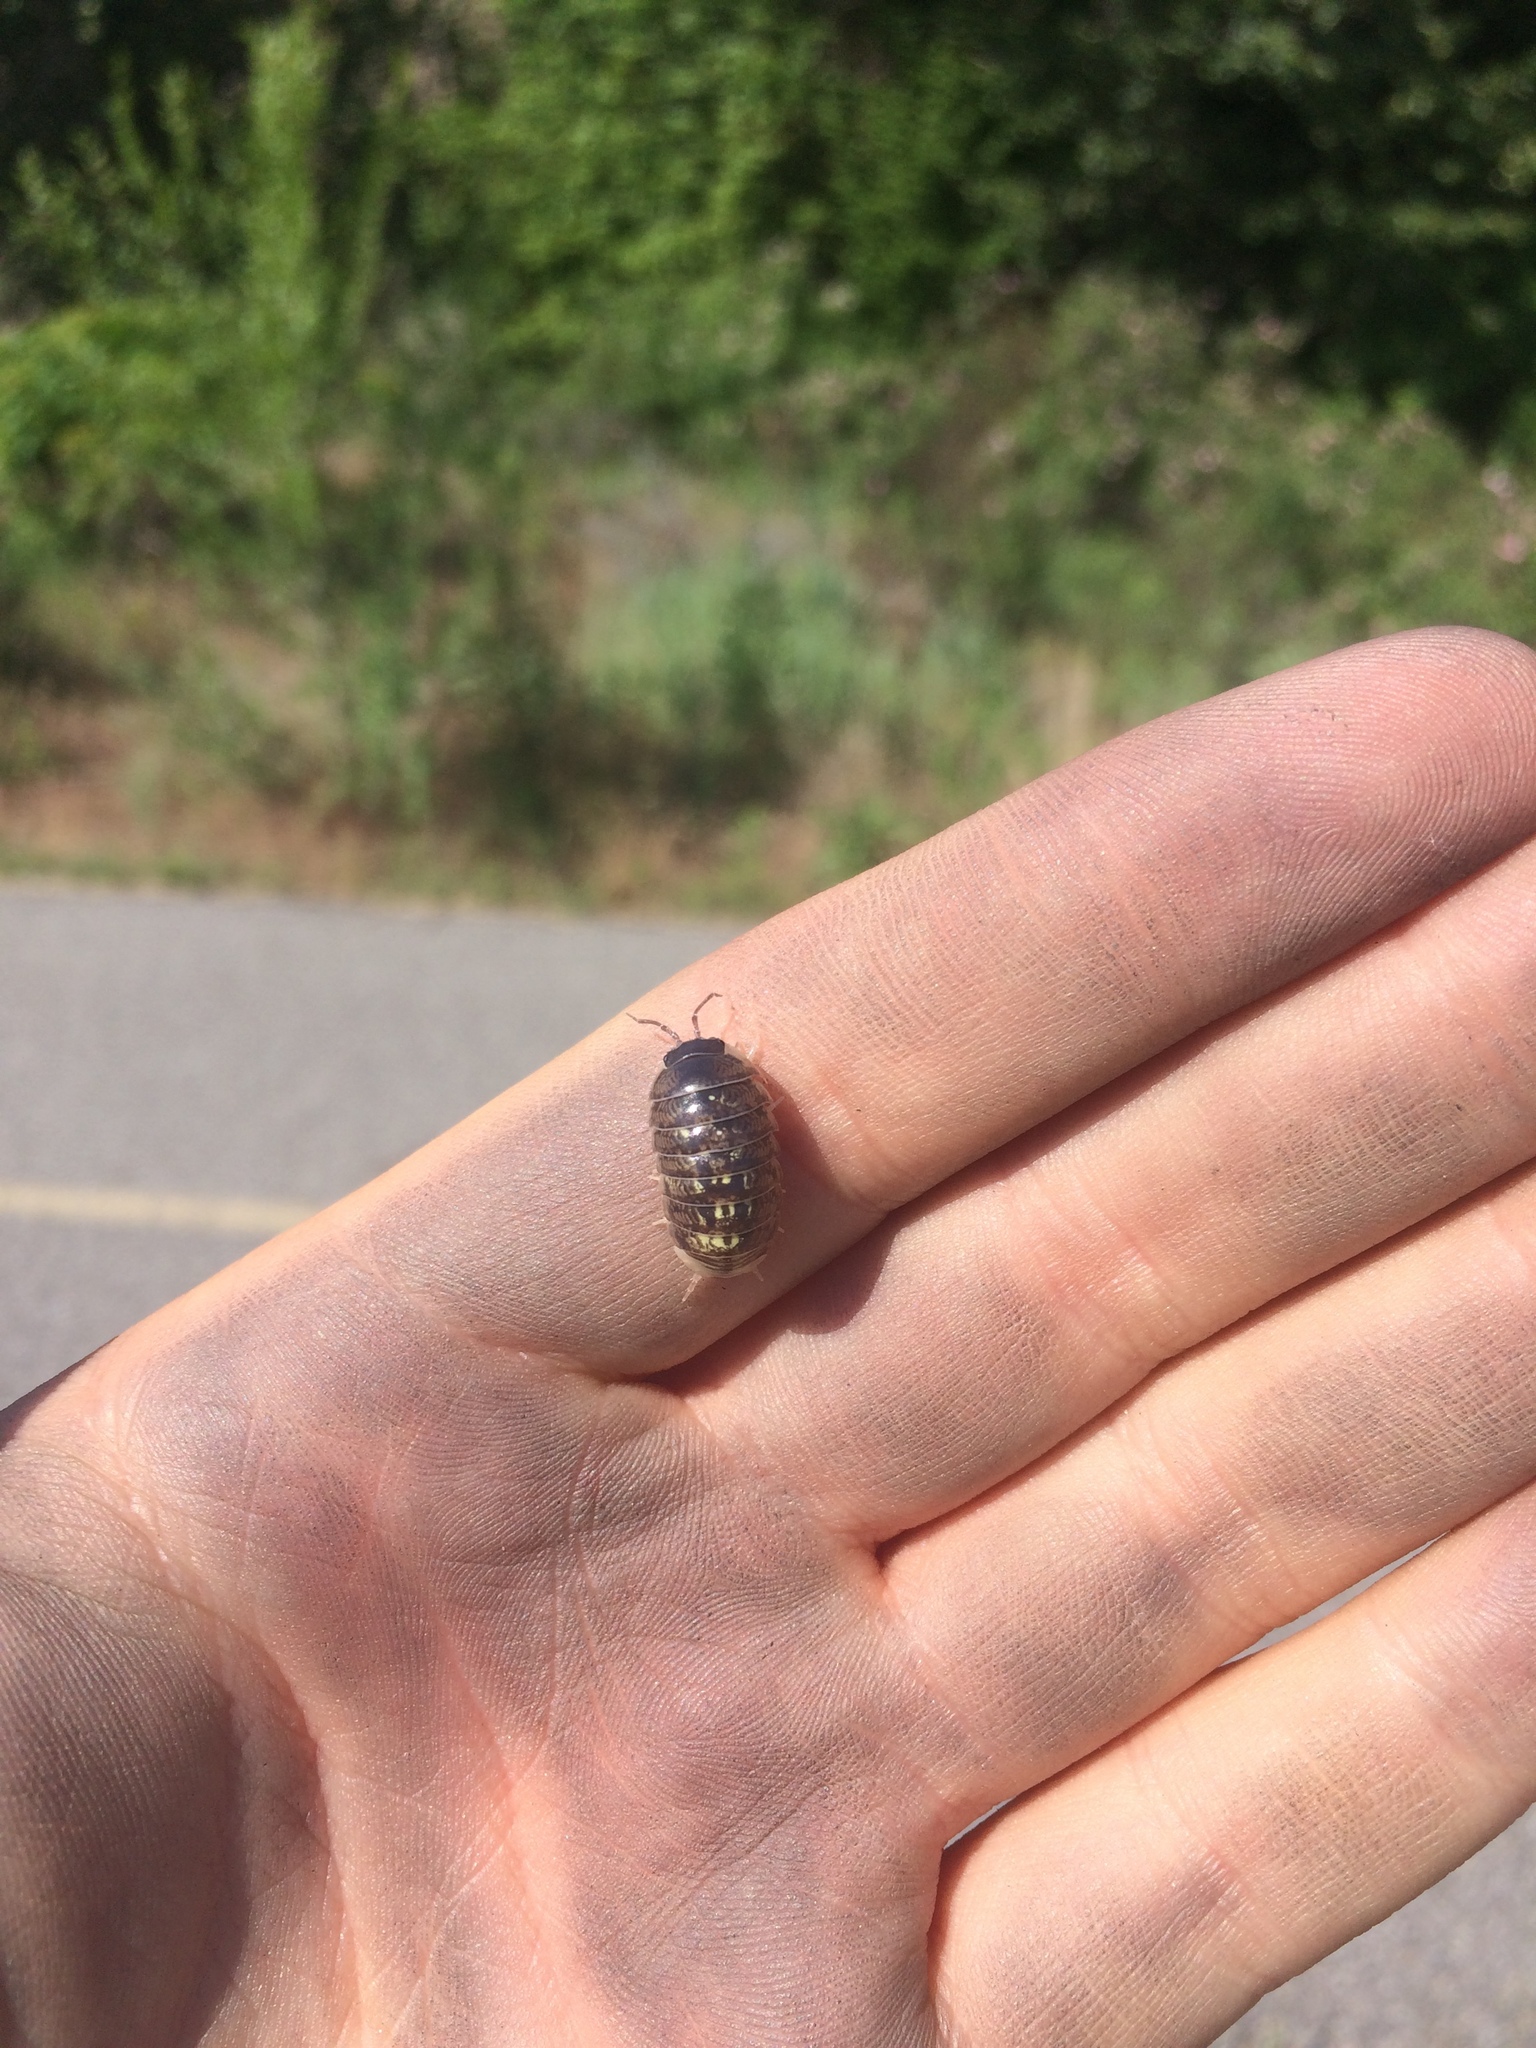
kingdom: Animalia
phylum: Arthropoda
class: Malacostraca
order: Isopoda
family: Armadillidiidae
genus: Armadillidium
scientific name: Armadillidium vulgare
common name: Common pill woodlouse
